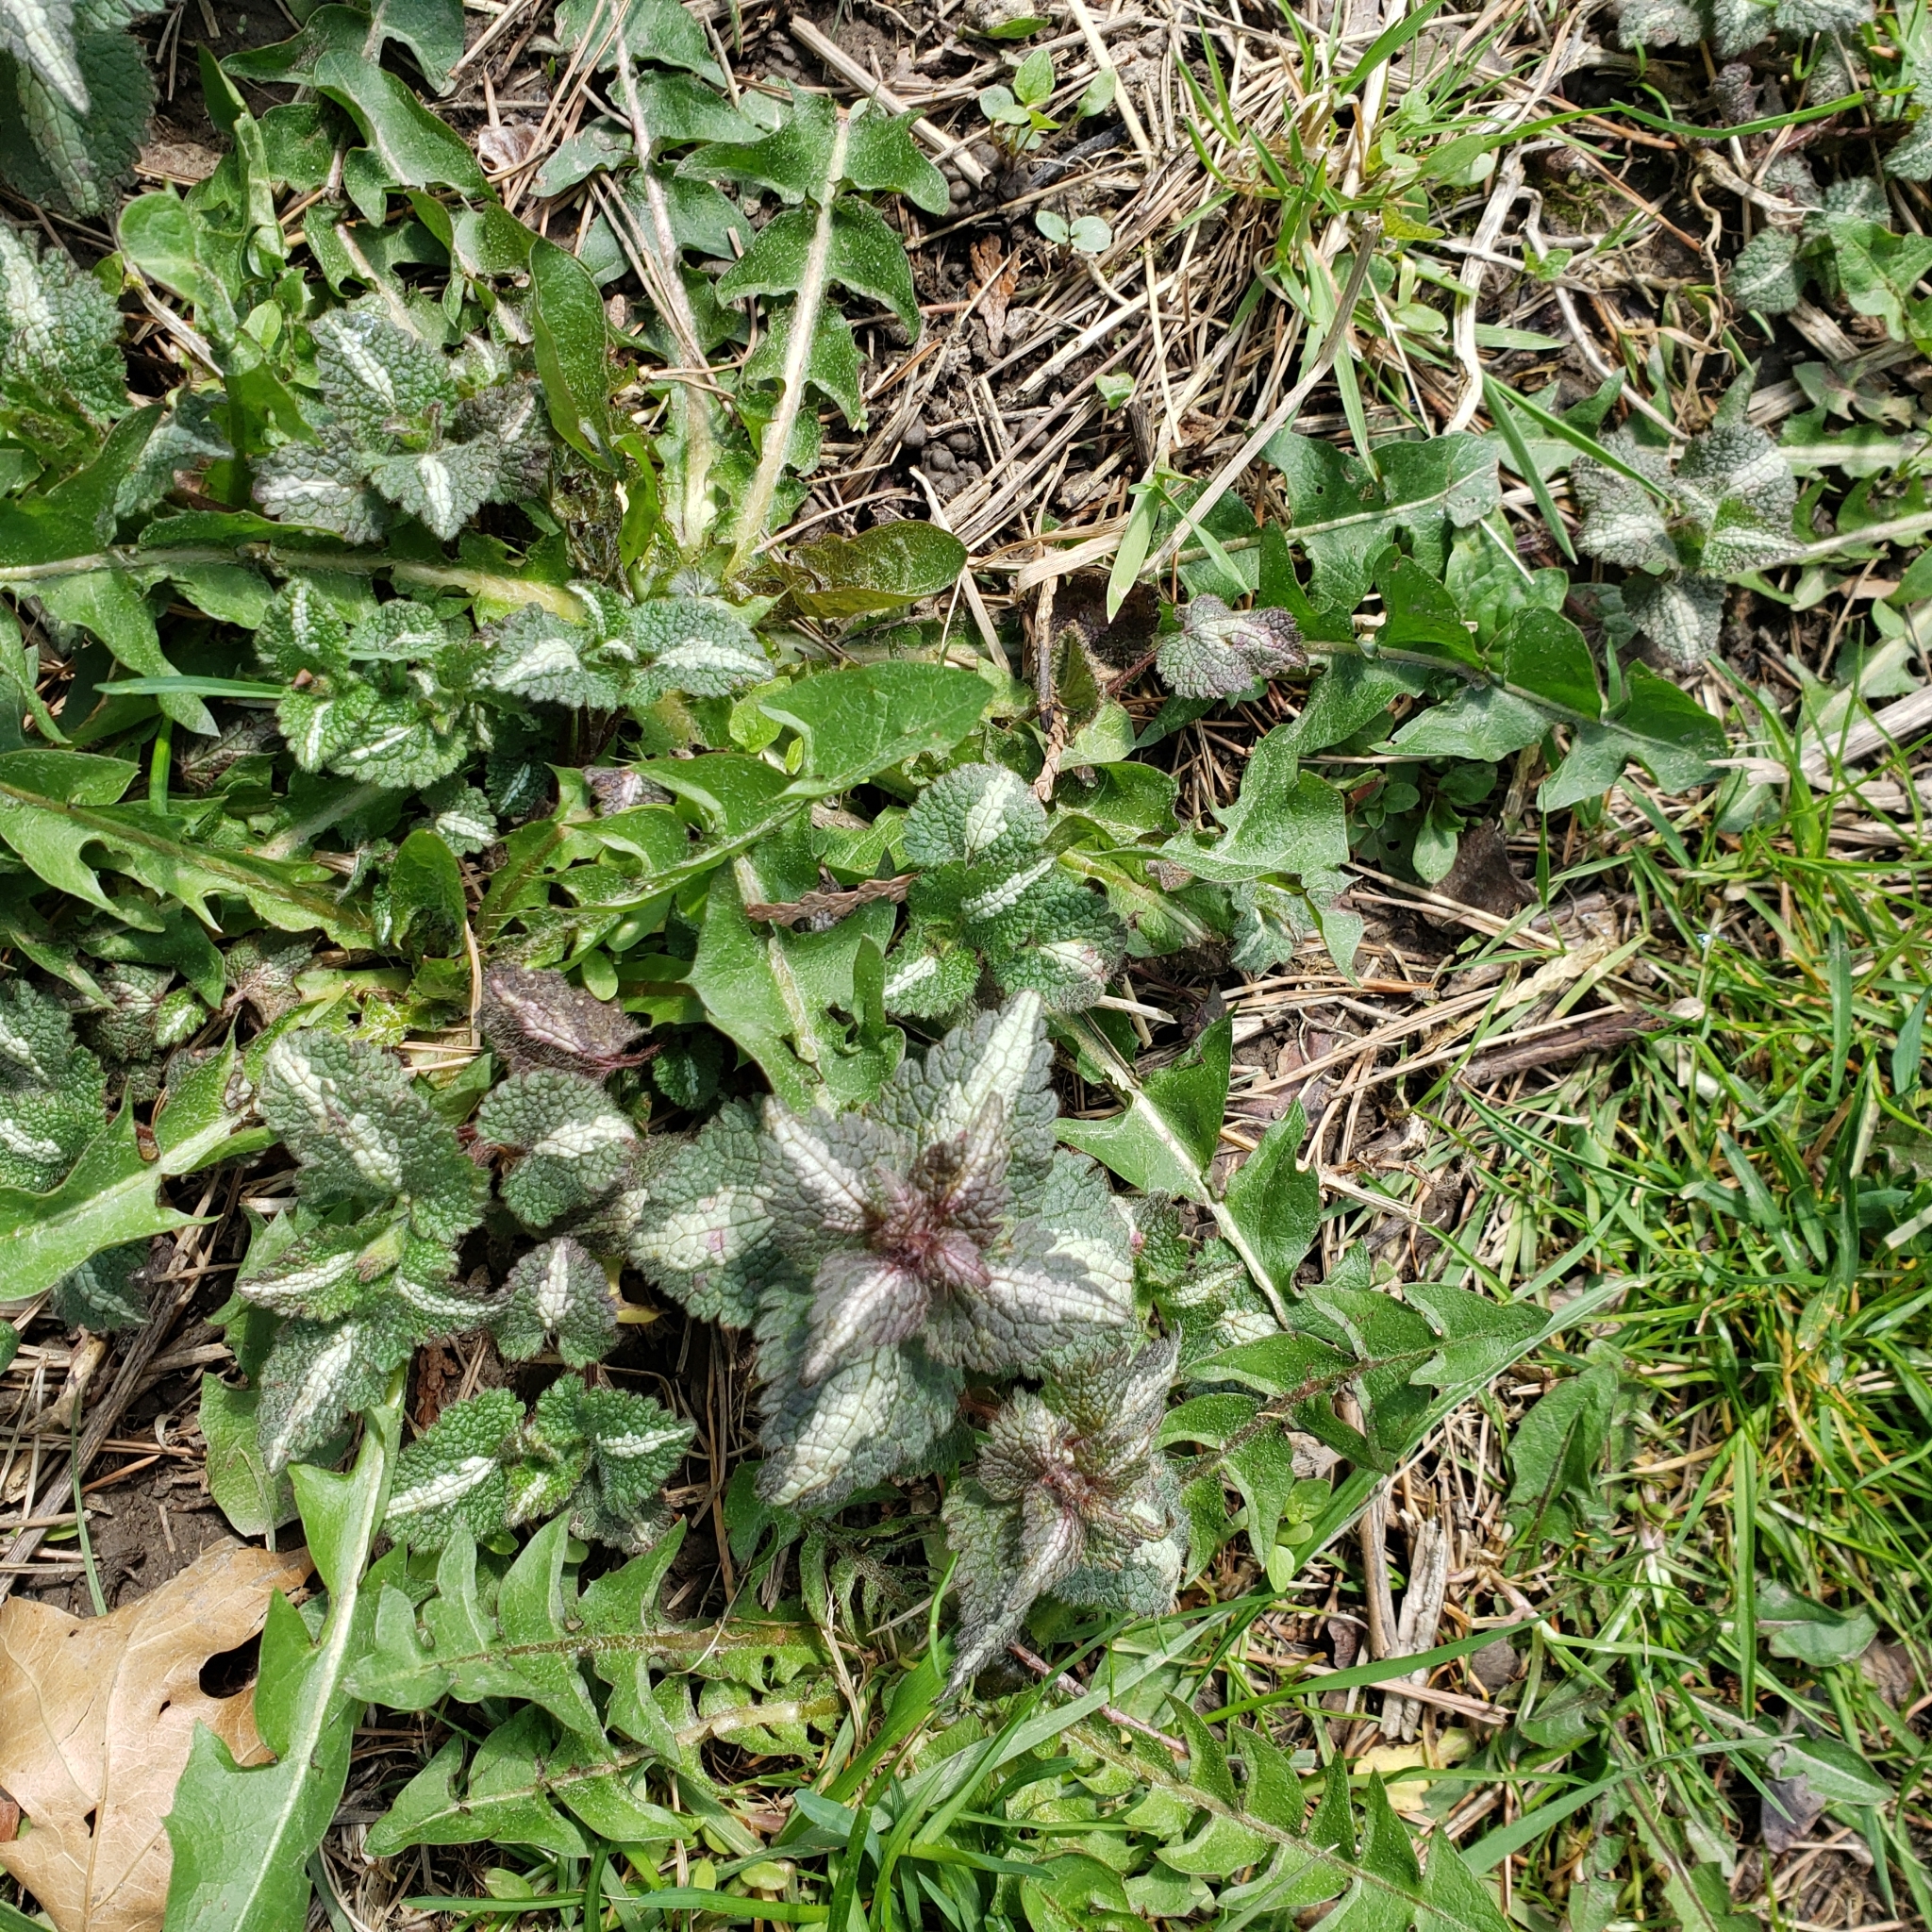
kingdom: Plantae
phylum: Tracheophyta
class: Magnoliopsida
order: Lamiales
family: Lamiaceae
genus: Lamium
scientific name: Lamium maculatum
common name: Spotted dead-nettle
